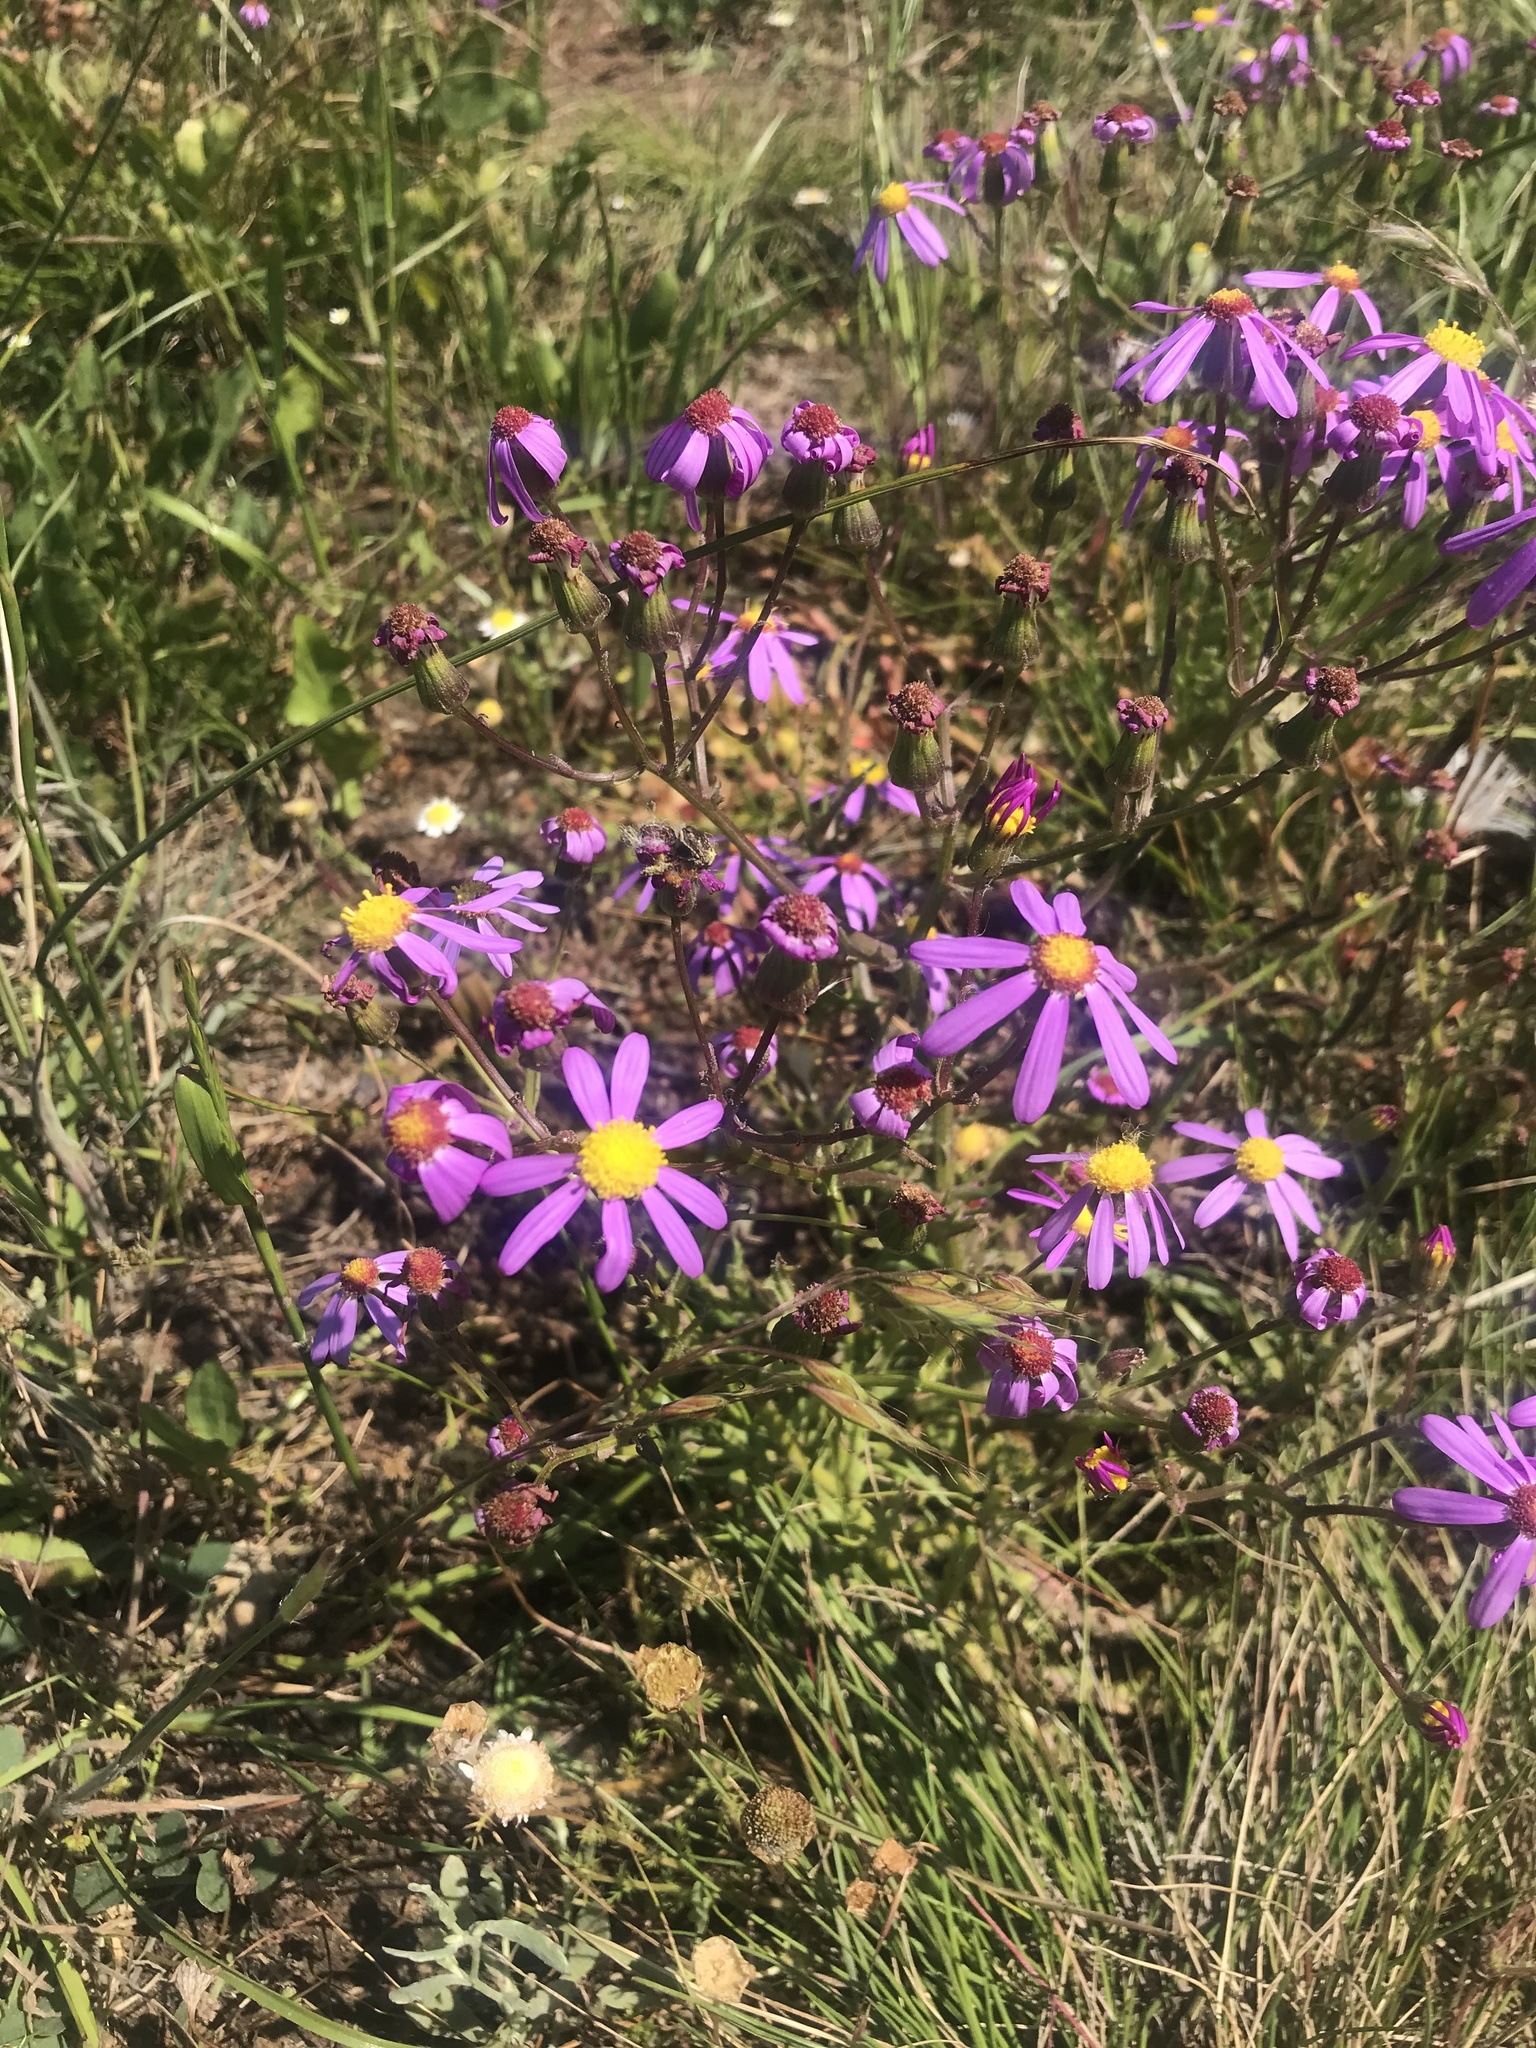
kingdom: Plantae
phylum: Tracheophyta
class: Magnoliopsida
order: Asterales
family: Asteraceae
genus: Senecio
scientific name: Senecio arenarius
